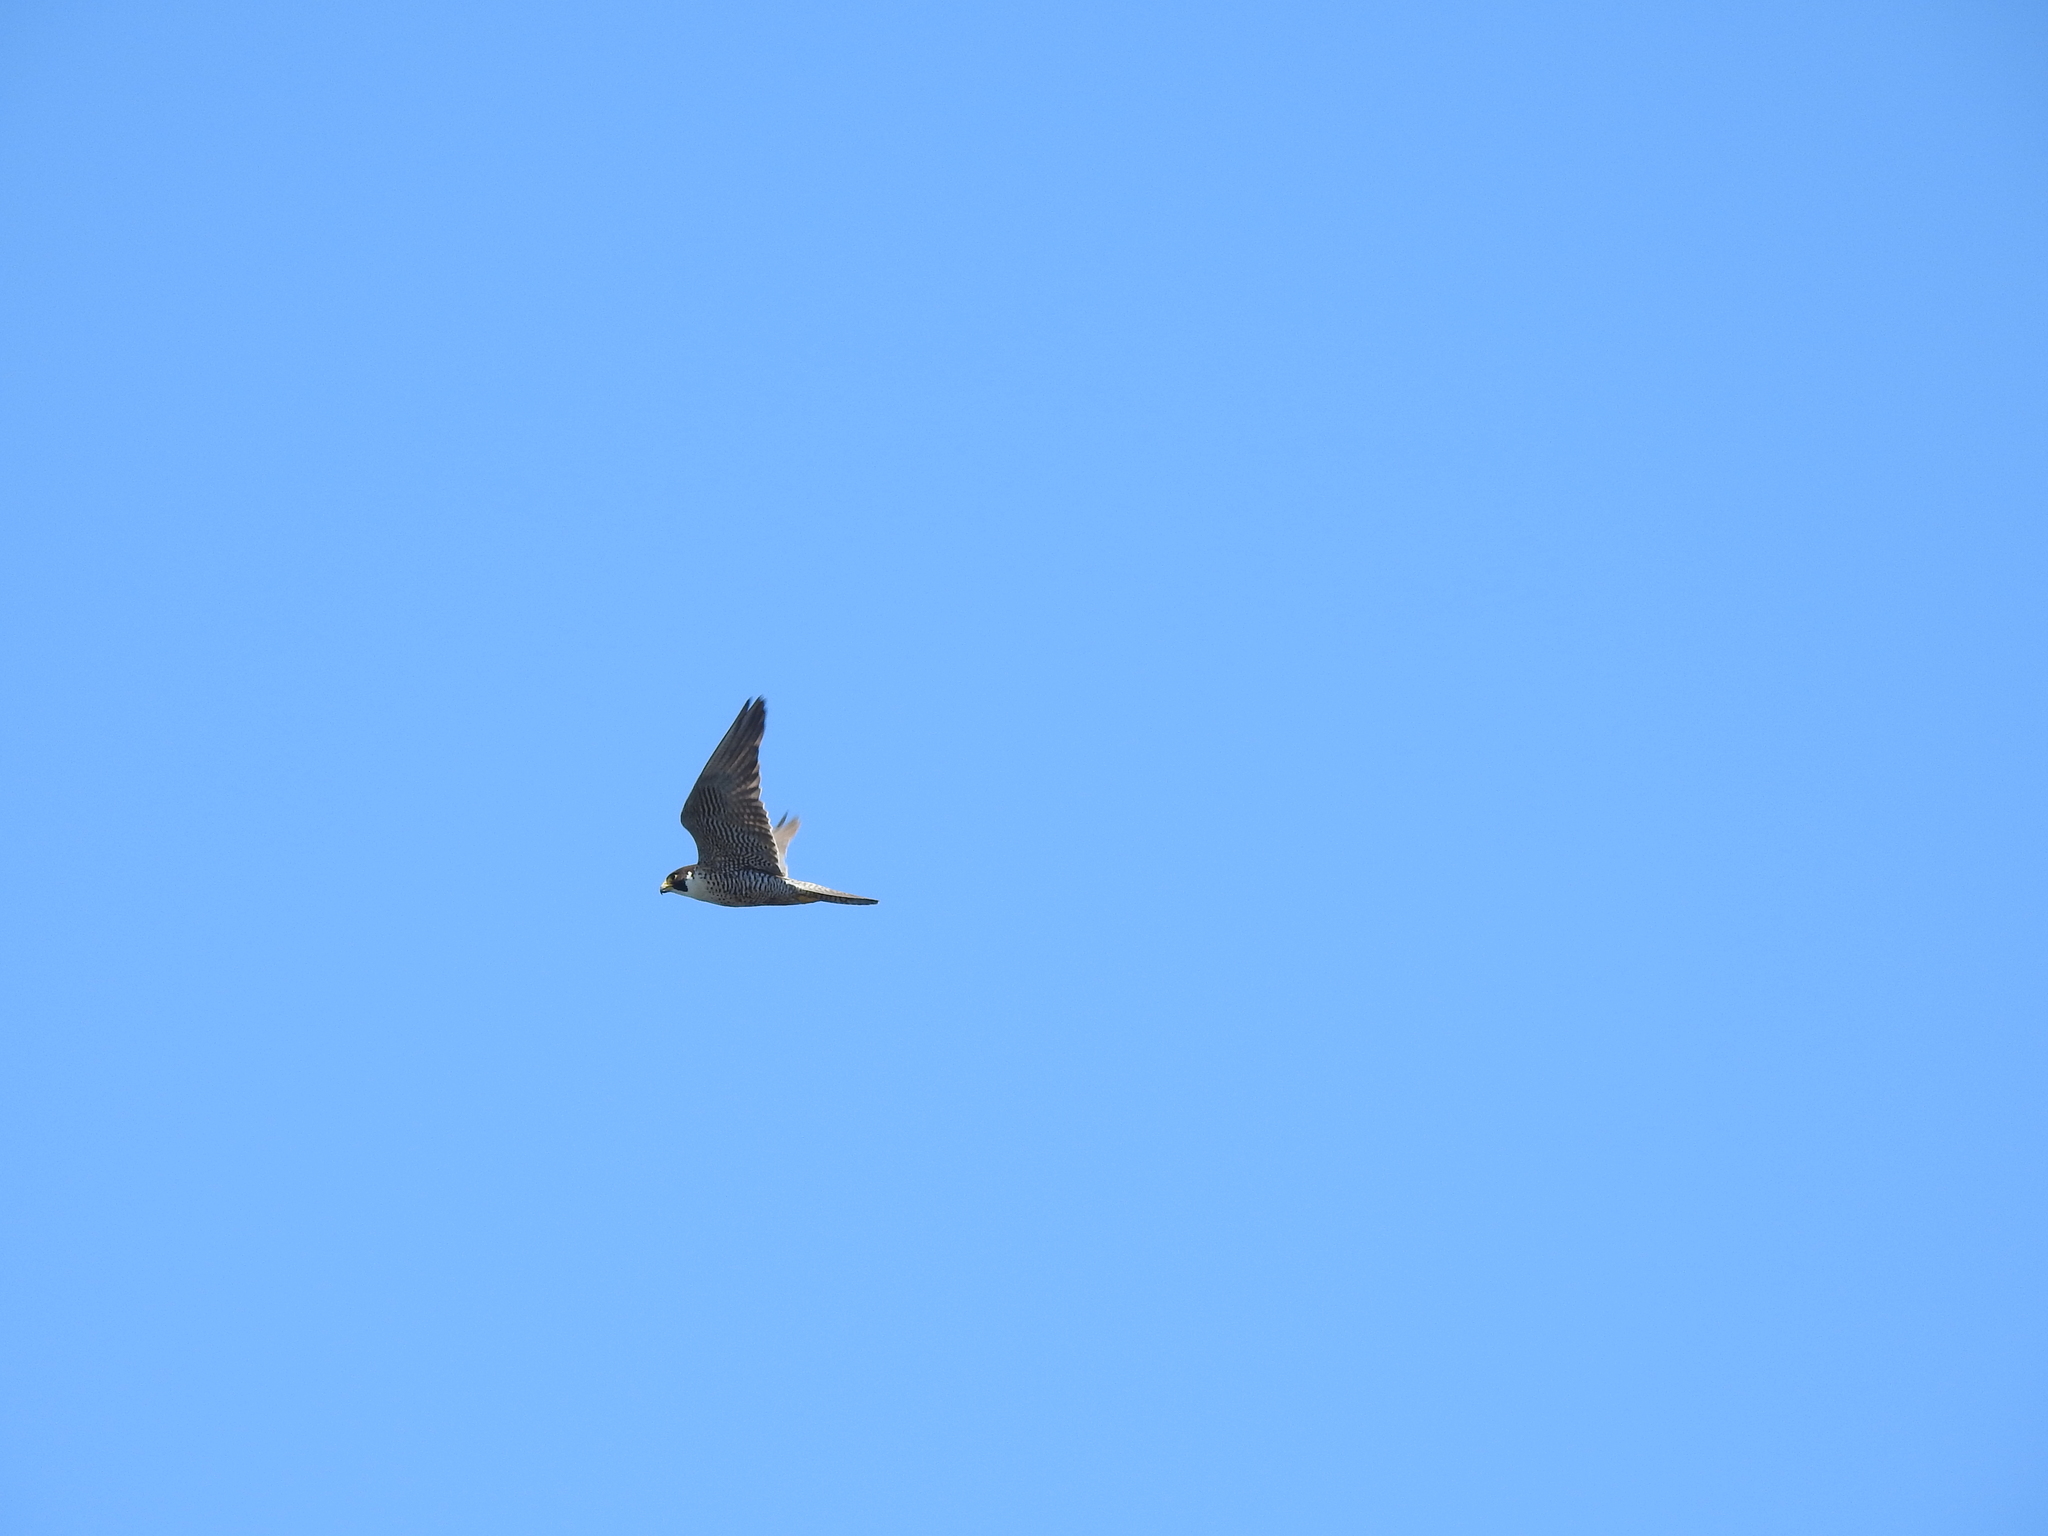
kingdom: Animalia
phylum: Chordata
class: Aves
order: Falconiformes
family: Falconidae
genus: Falco
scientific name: Falco peregrinus
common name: Peregrine falcon
